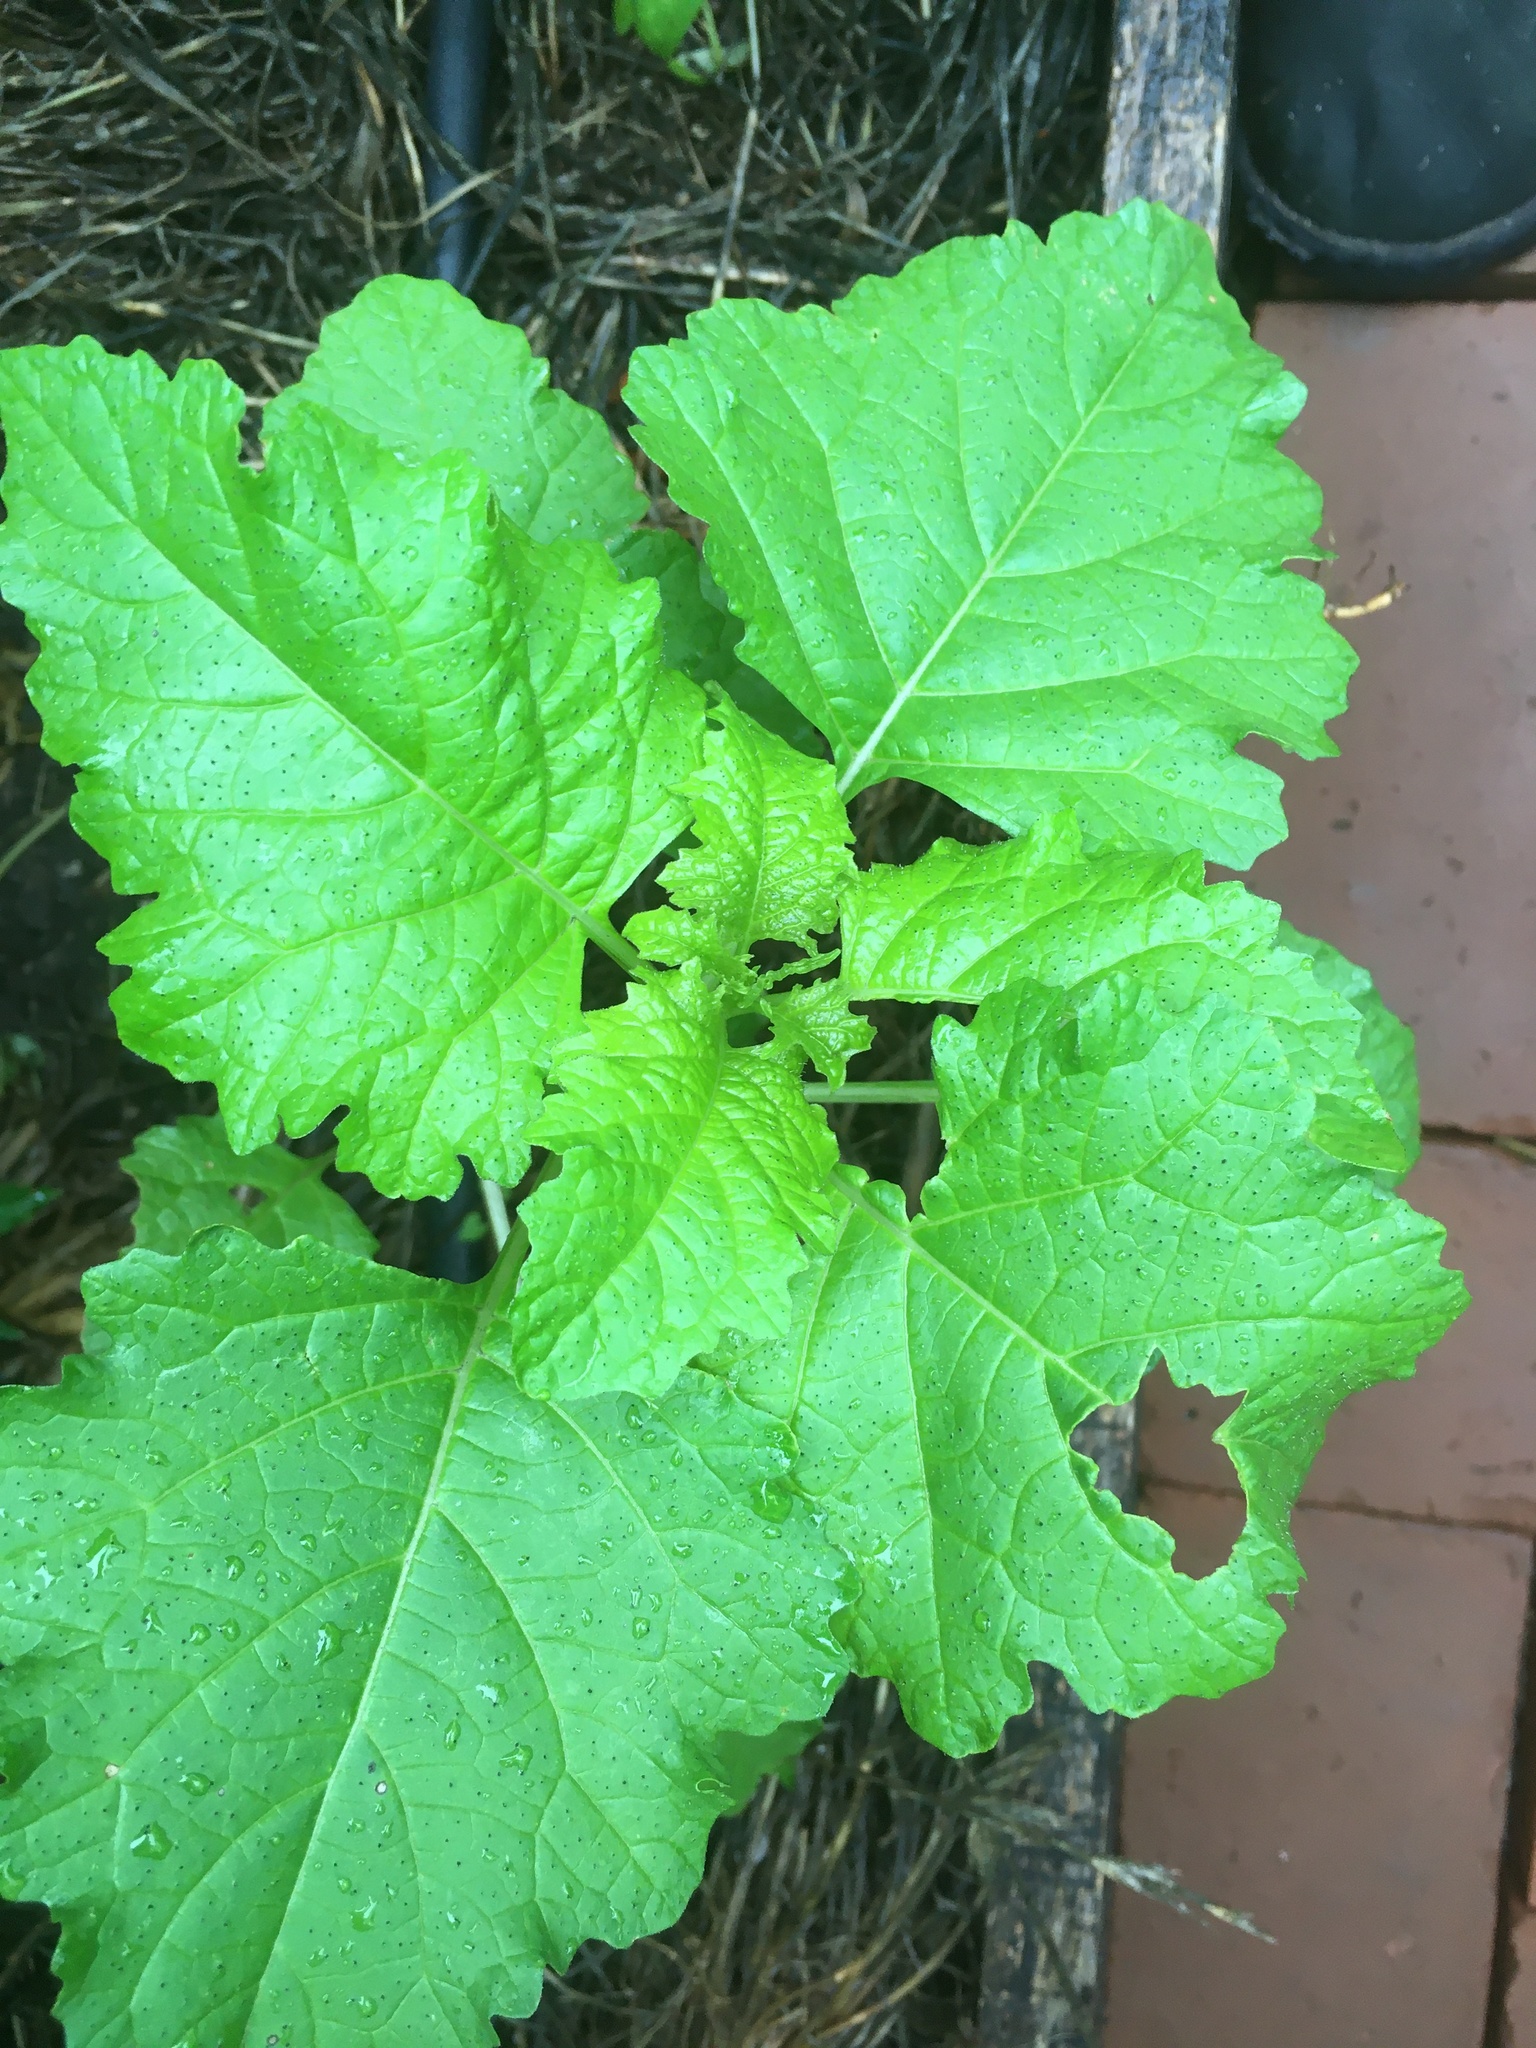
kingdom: Plantae
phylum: Tracheophyta
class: Magnoliopsida
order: Solanales
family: Solanaceae
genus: Nicandra
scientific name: Nicandra physalodes
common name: Apple-of-peru
